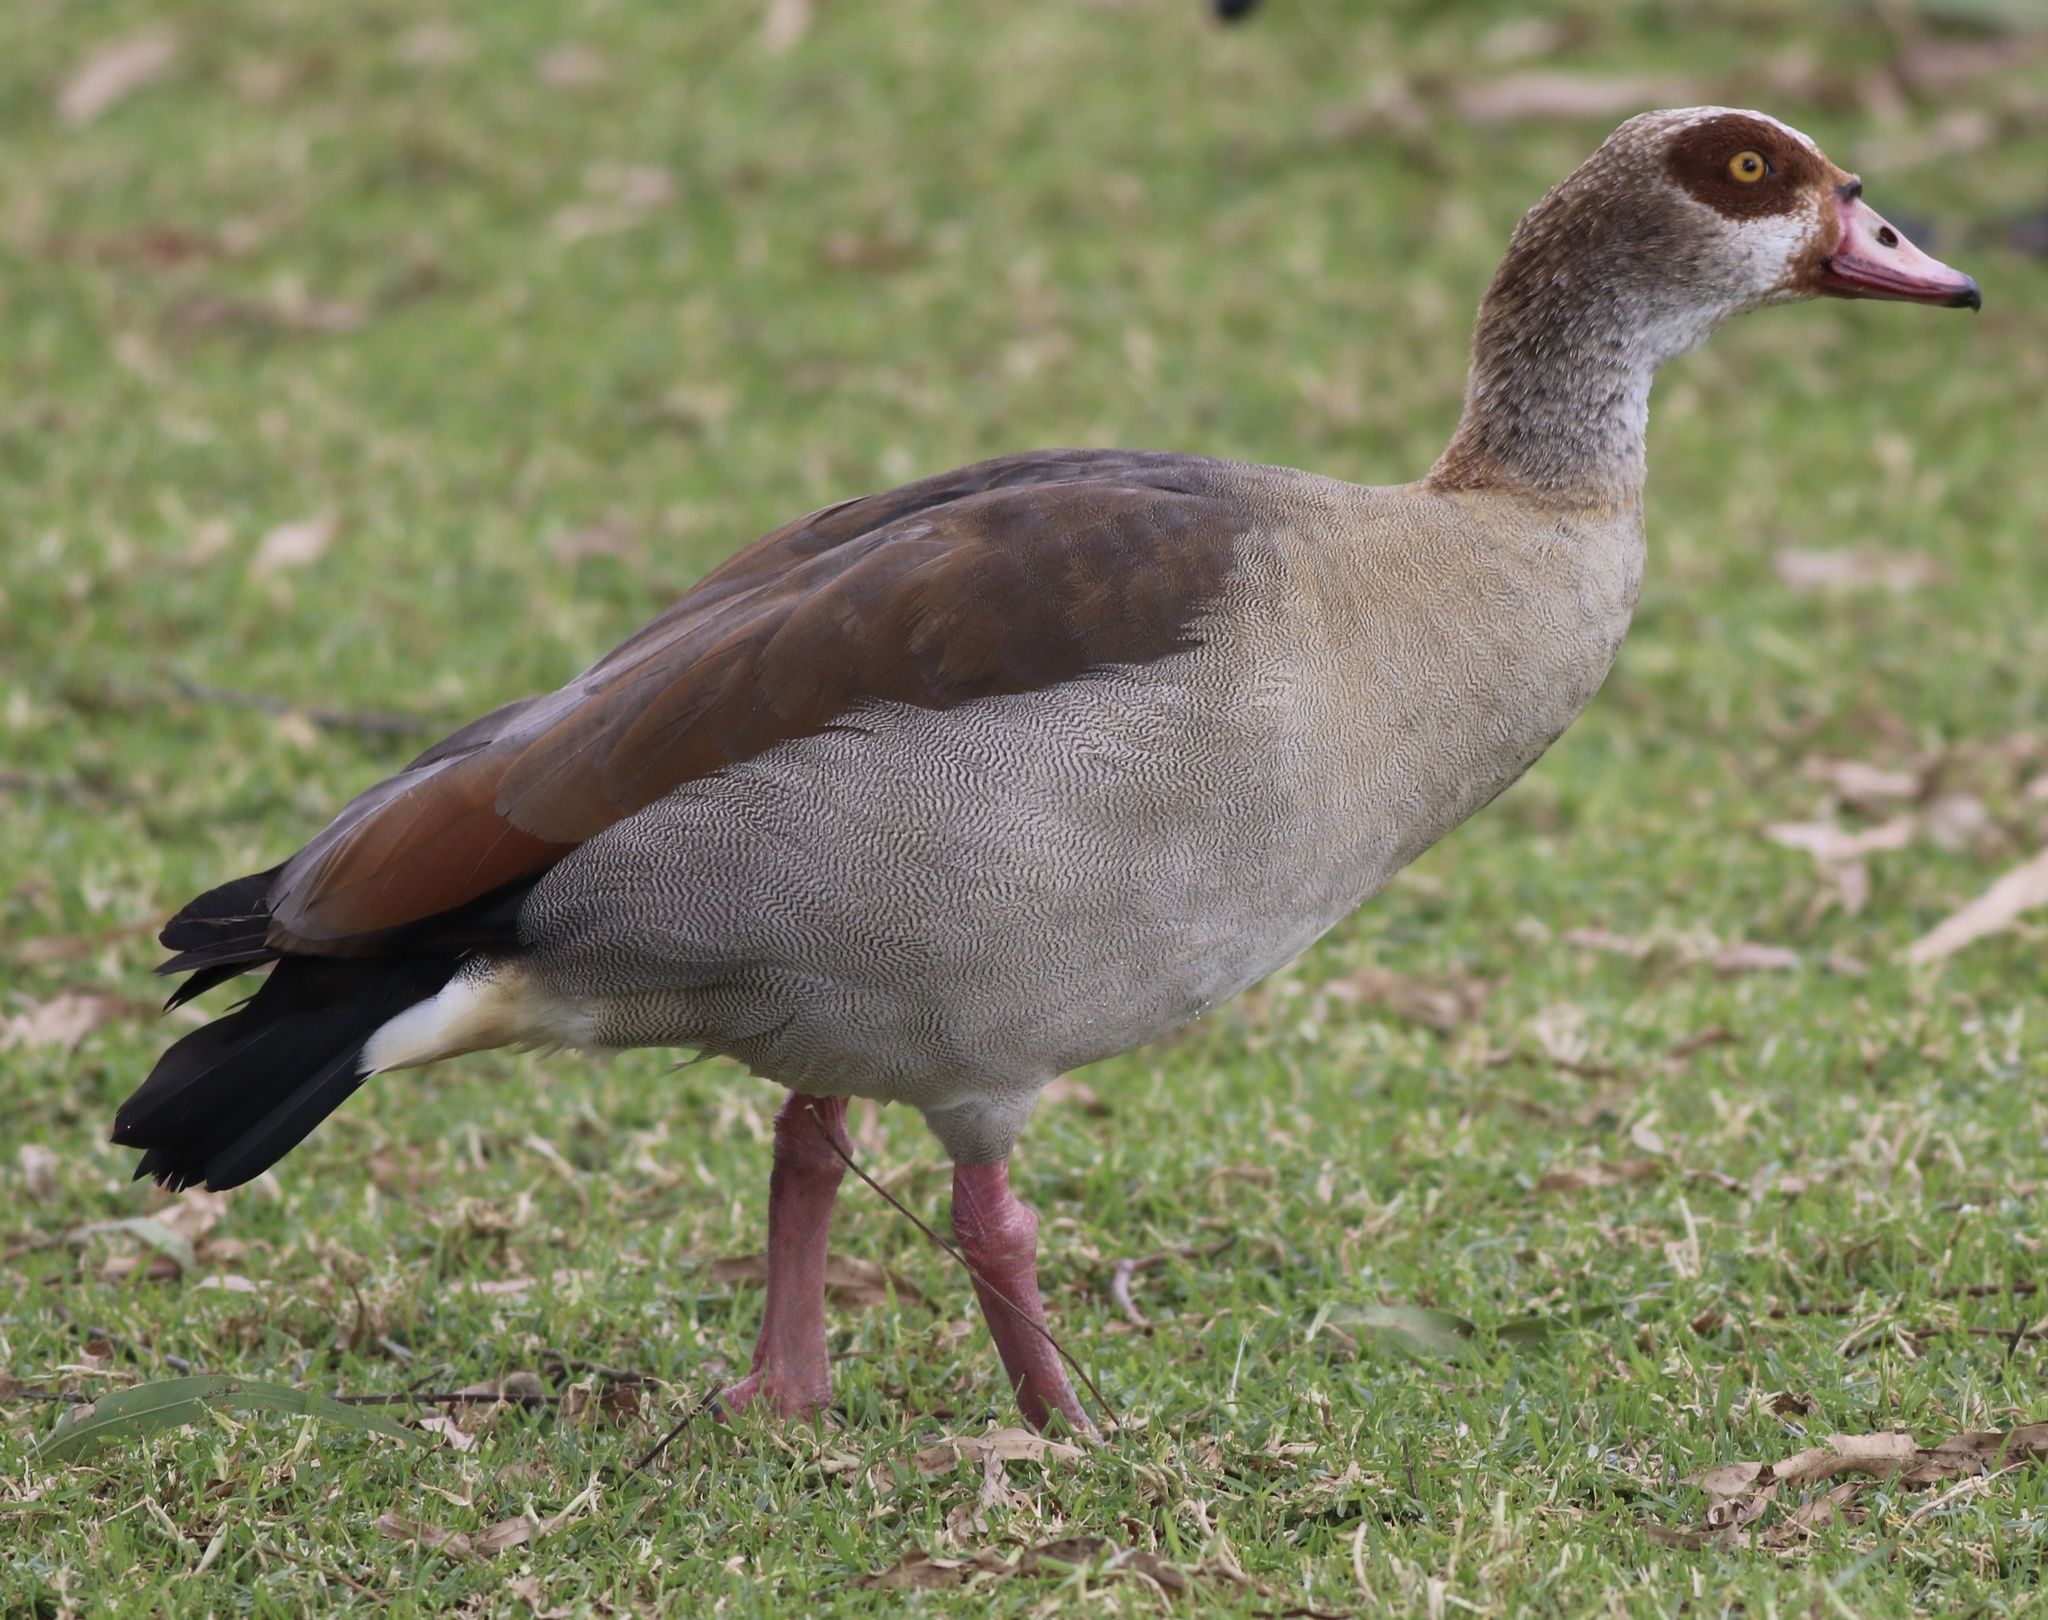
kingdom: Animalia
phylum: Chordata
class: Aves
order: Anseriformes
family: Anatidae
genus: Alopochen
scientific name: Alopochen aegyptiaca
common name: Egyptian goose
